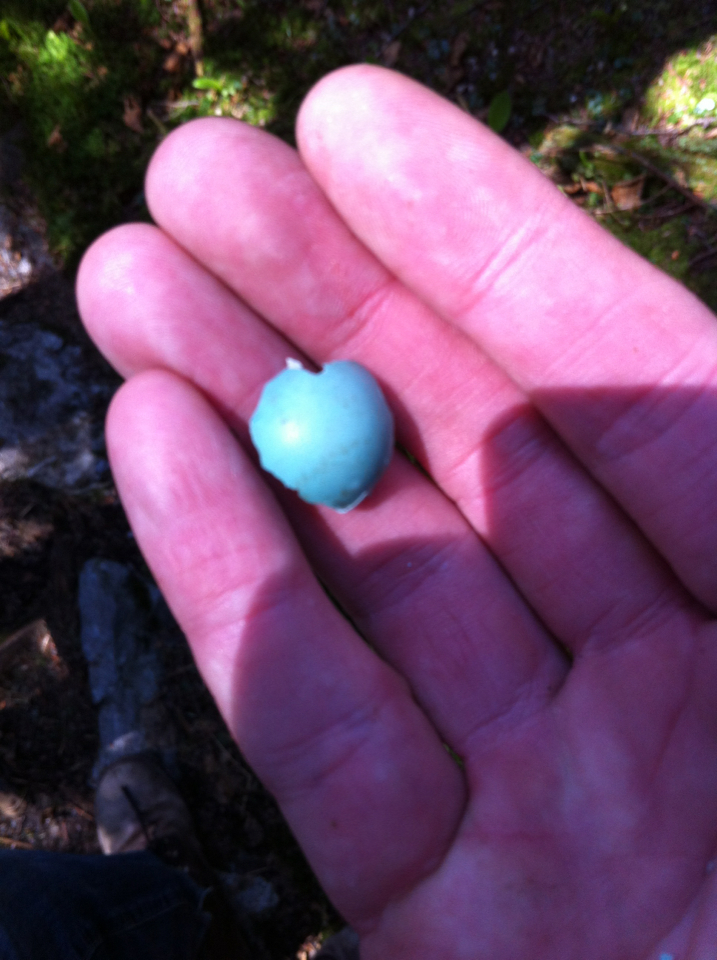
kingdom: Animalia
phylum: Chordata
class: Aves
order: Passeriformes
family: Turdidae
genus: Turdus
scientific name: Turdus migratorius
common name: American robin
